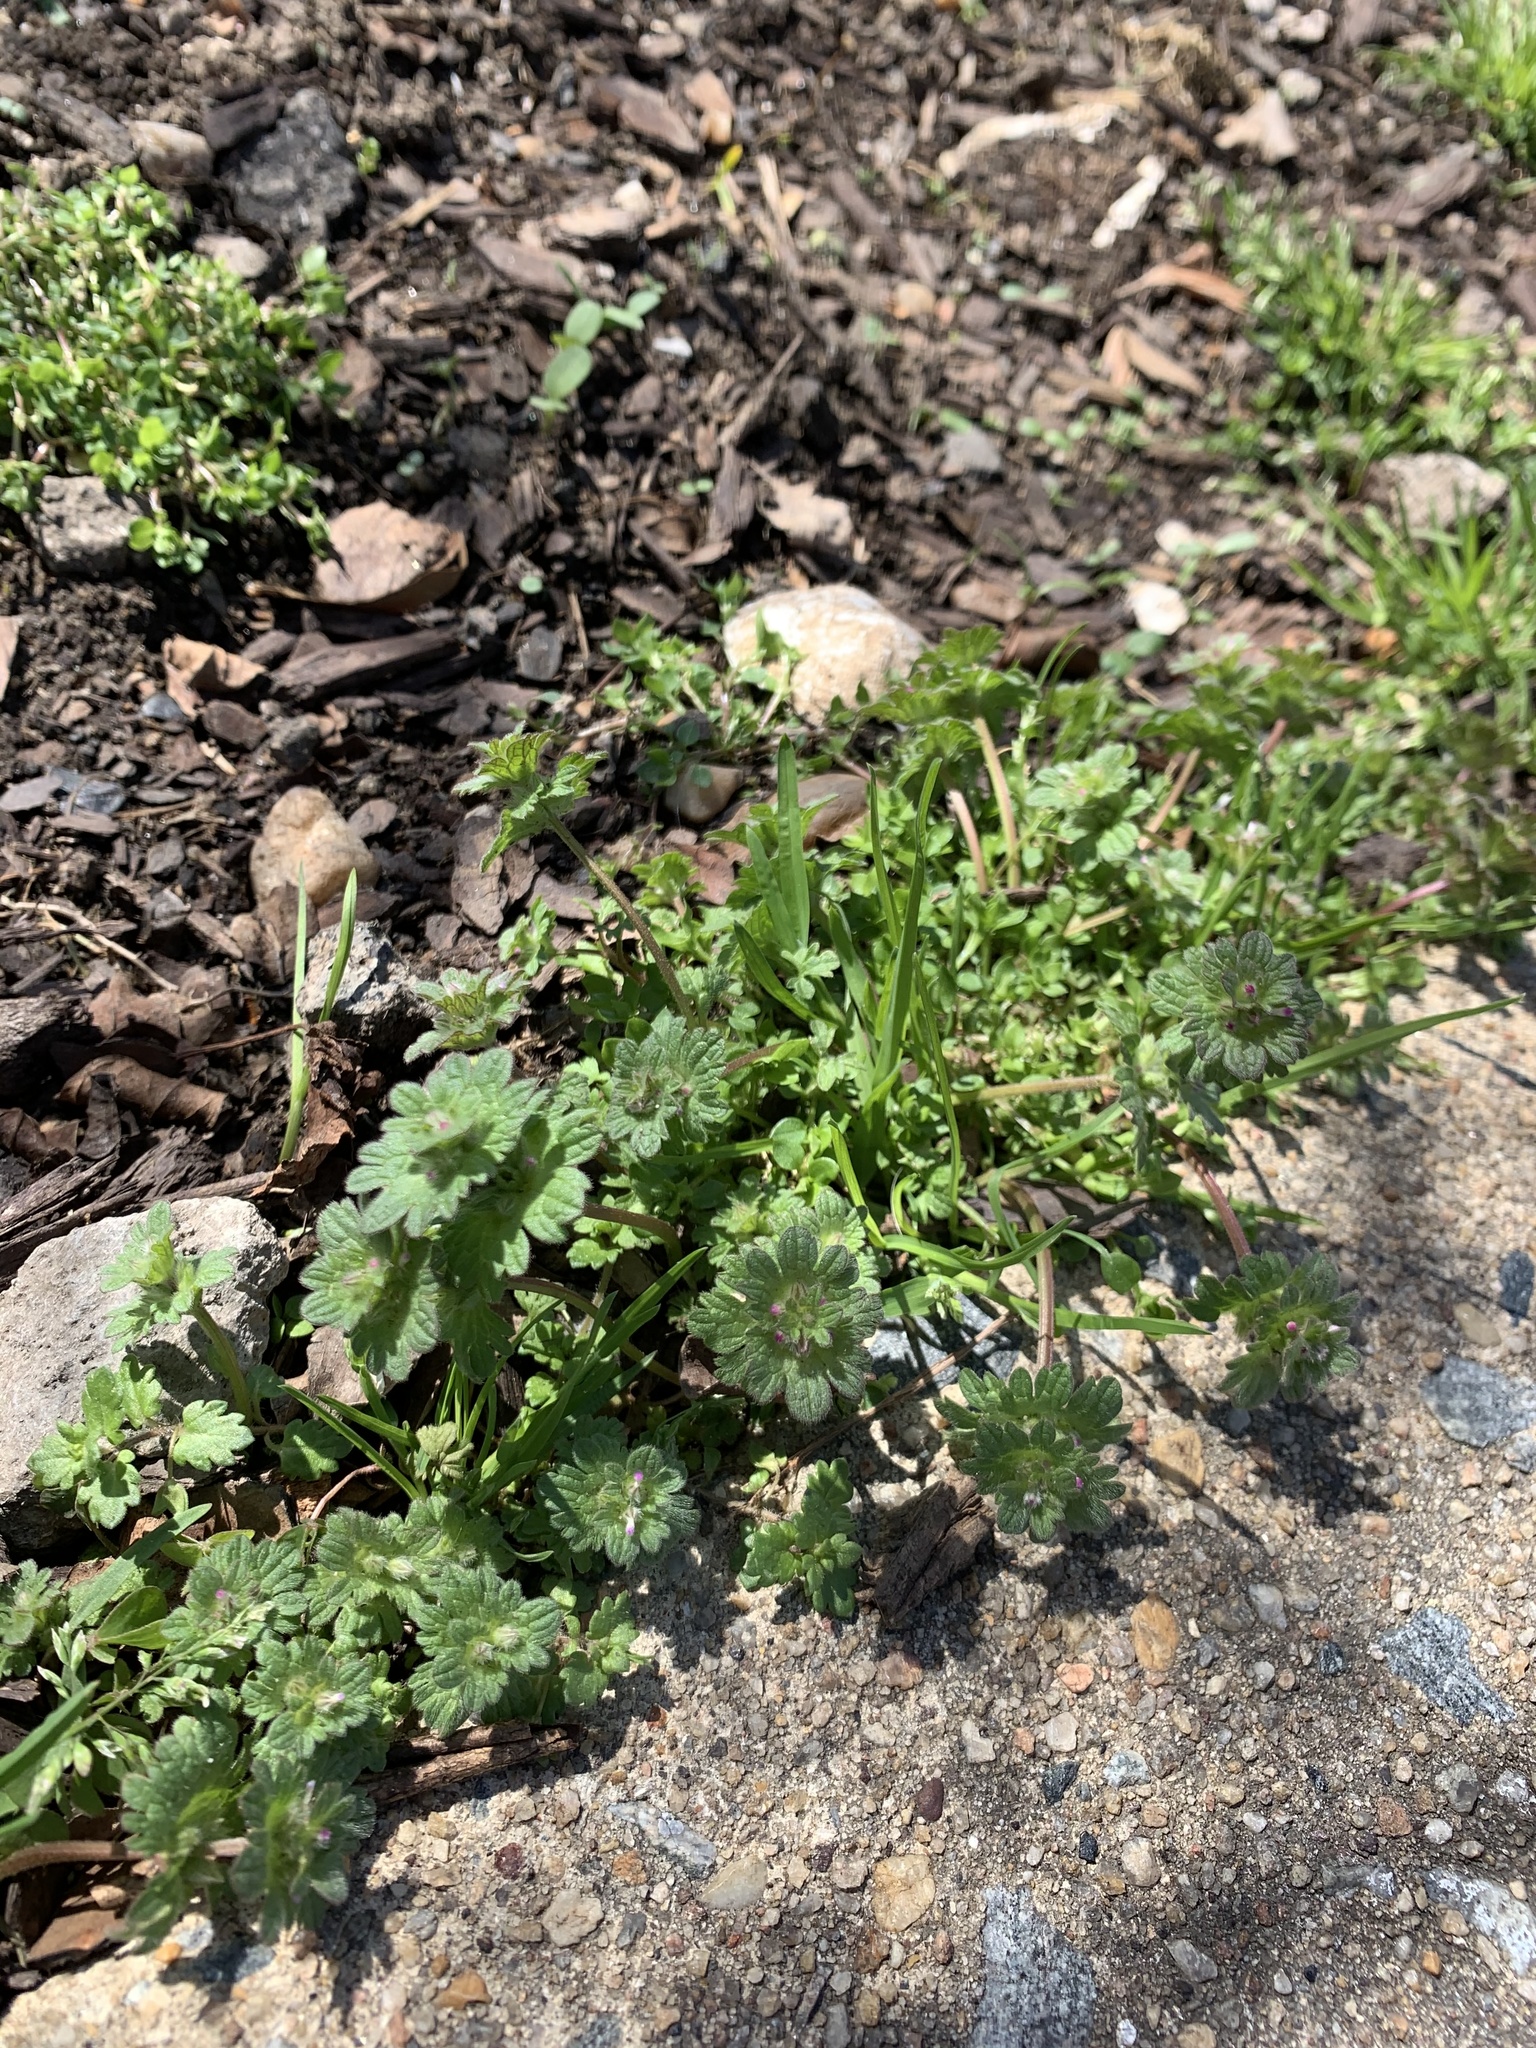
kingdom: Plantae
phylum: Tracheophyta
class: Magnoliopsida
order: Lamiales
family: Lamiaceae
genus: Lamium
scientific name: Lamium amplexicaule
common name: Henbit dead-nettle
